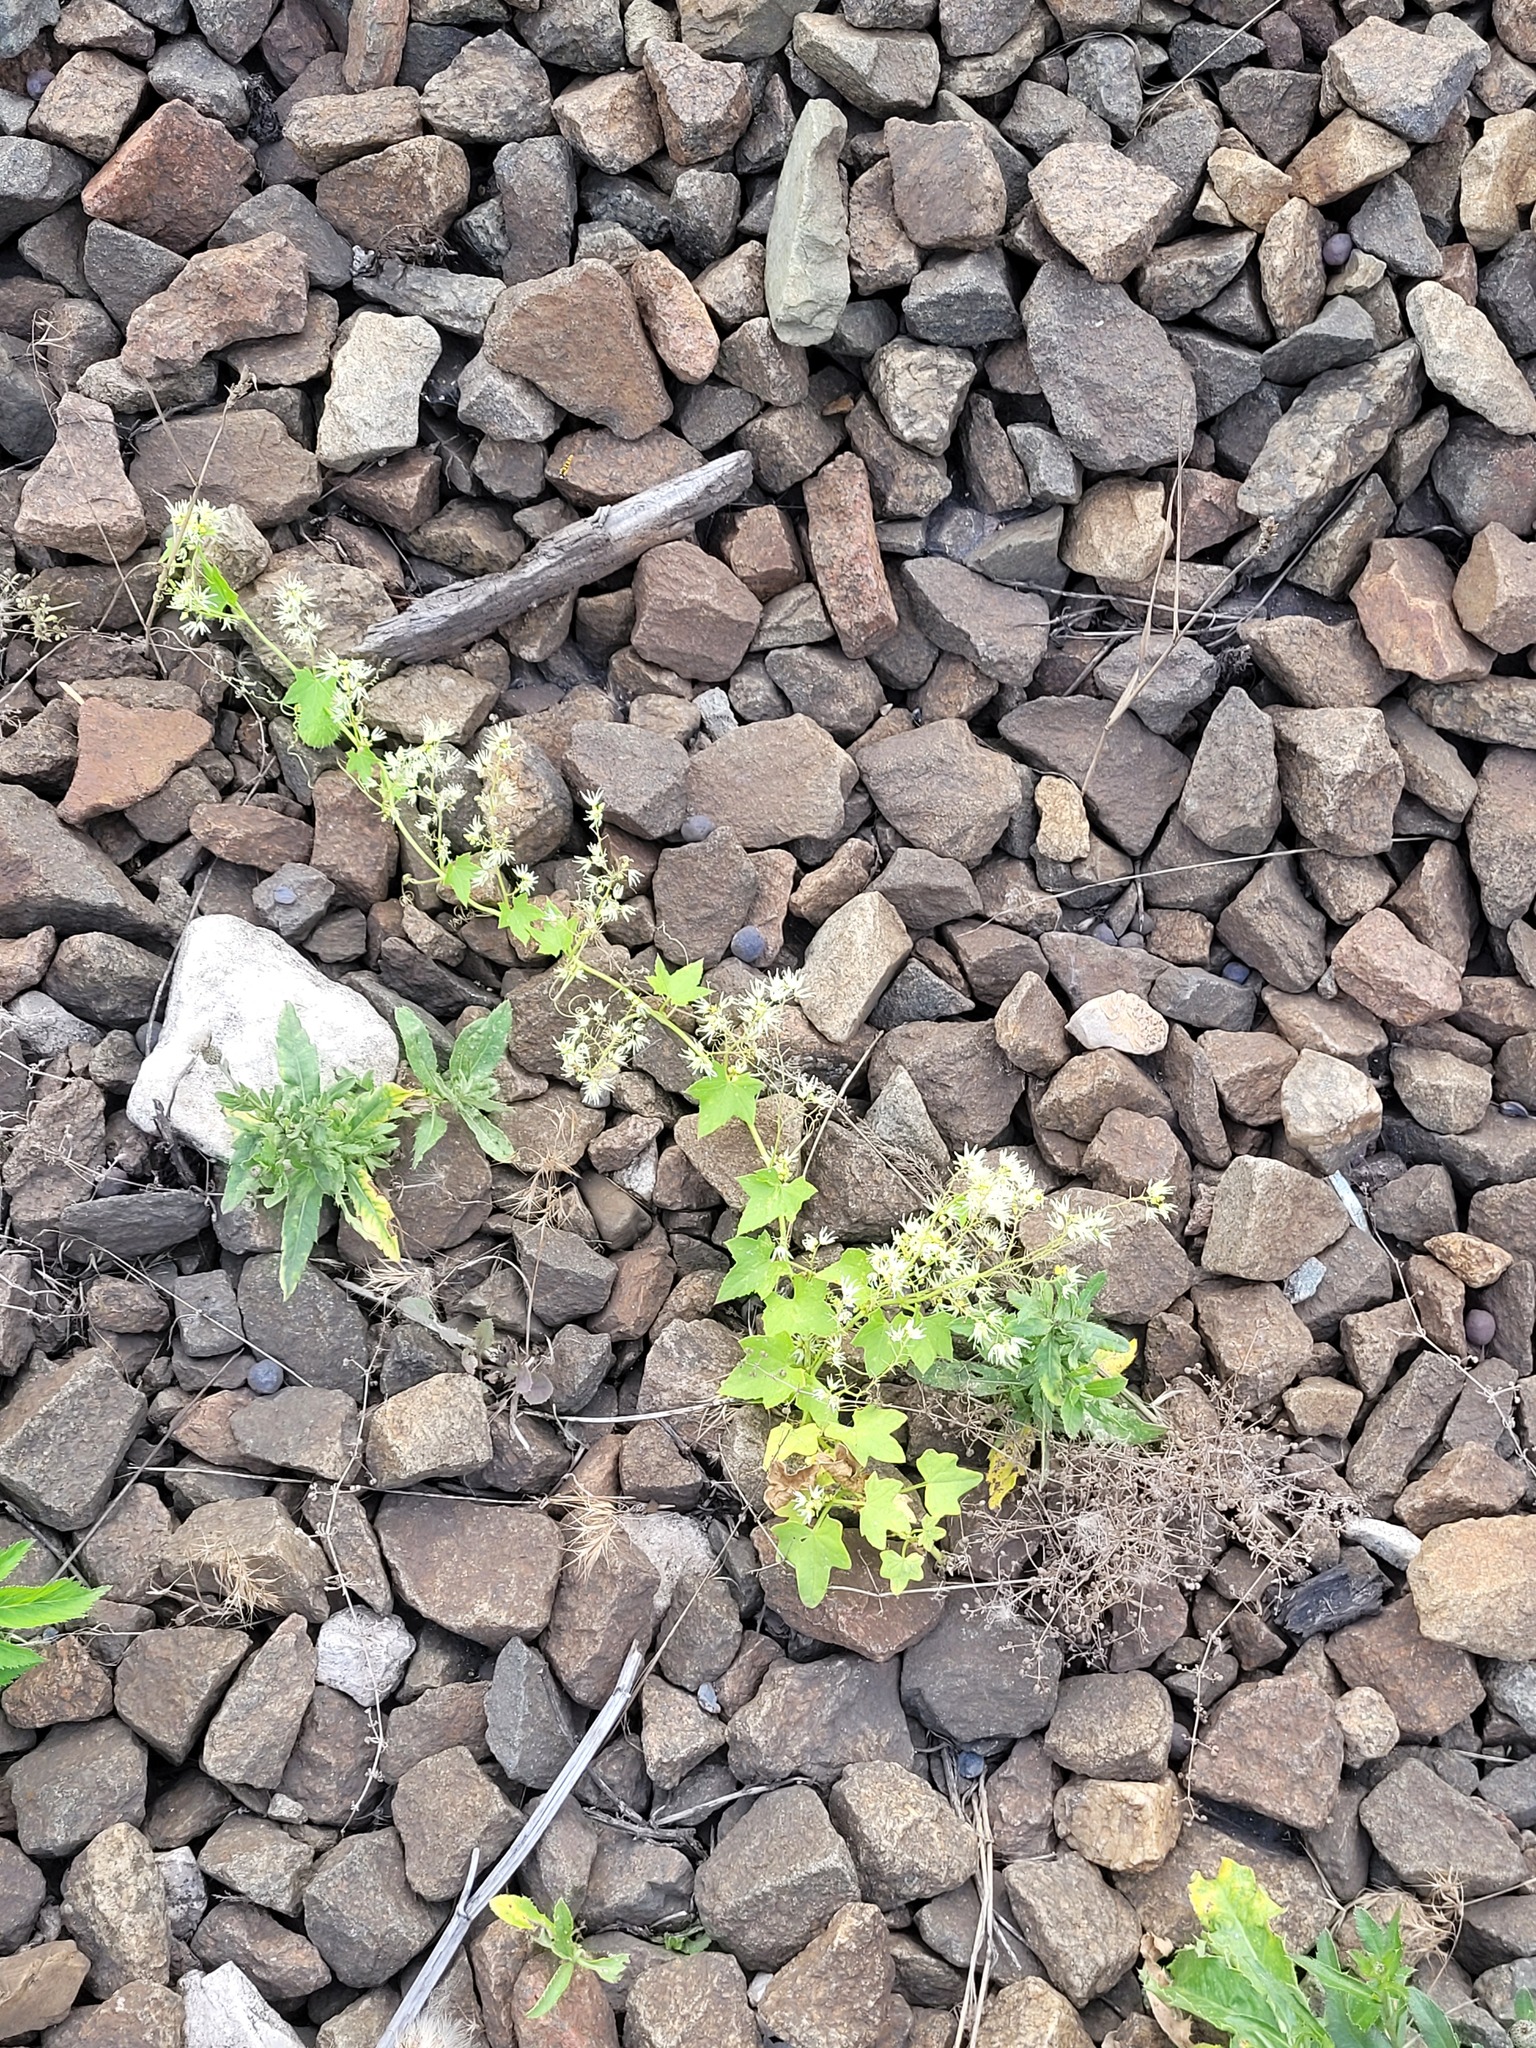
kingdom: Plantae
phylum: Tracheophyta
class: Magnoliopsida
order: Cucurbitales
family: Cucurbitaceae
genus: Echinocystis
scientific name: Echinocystis lobata
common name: Wild cucumber
